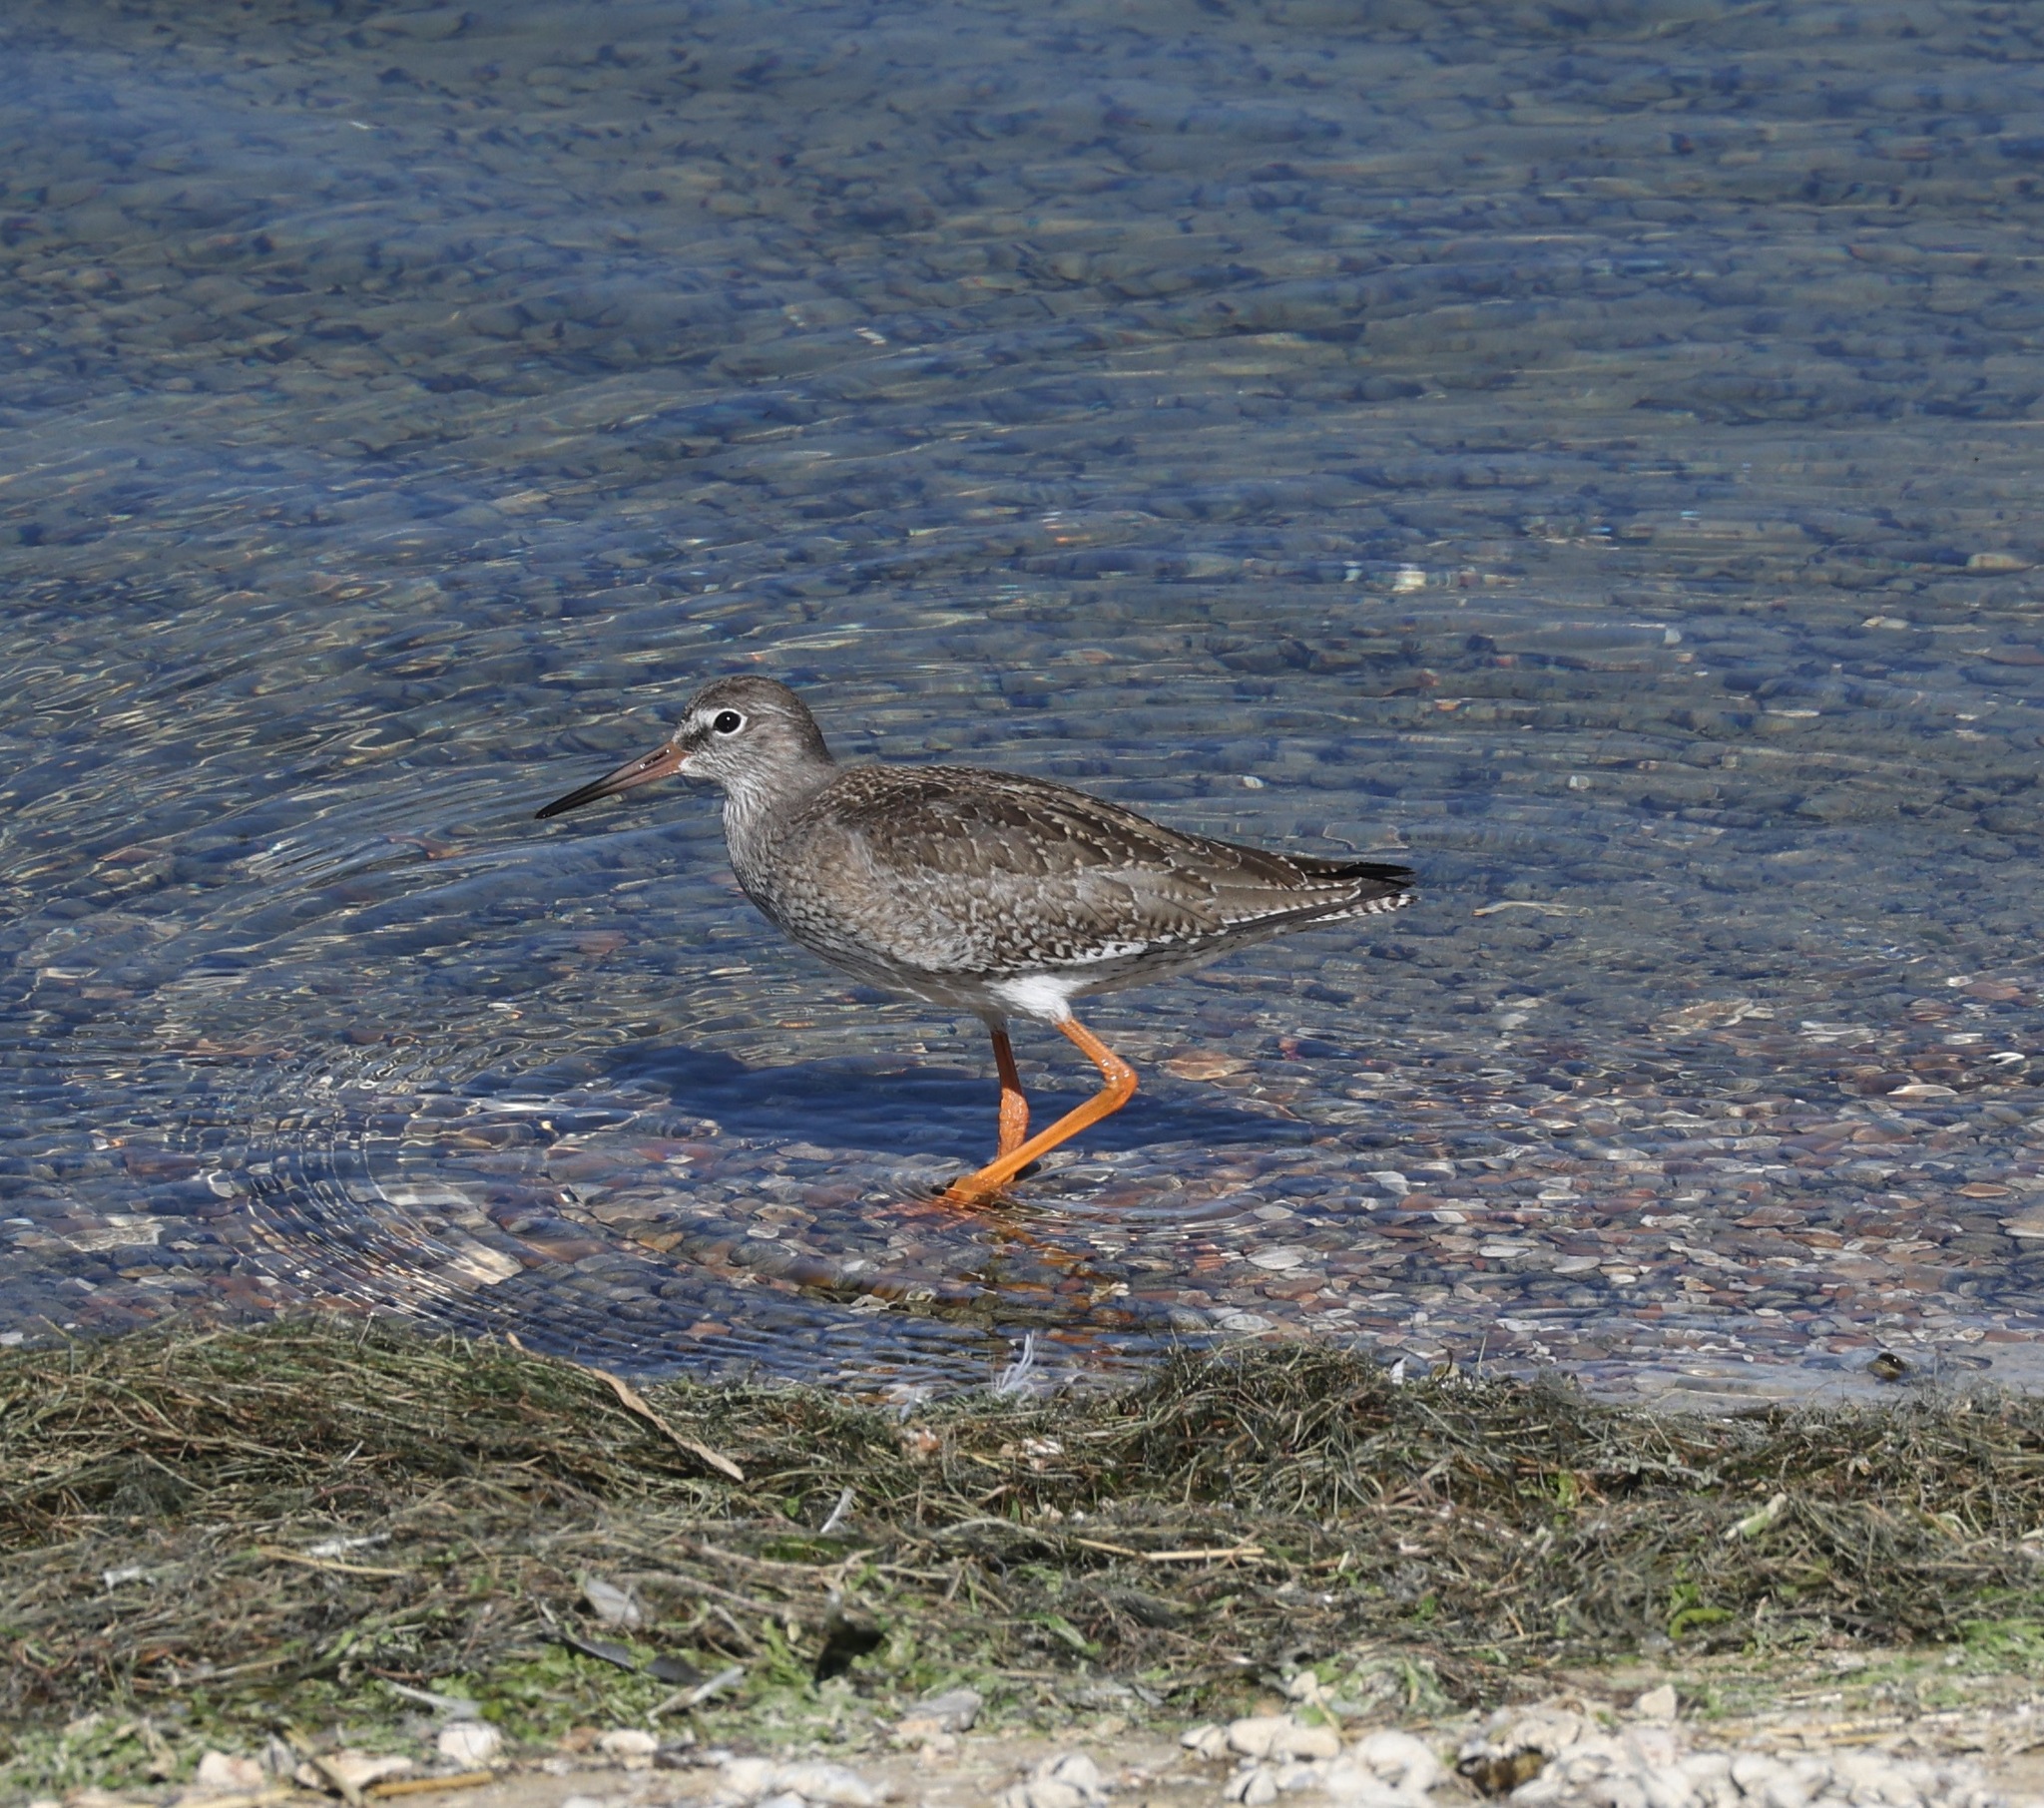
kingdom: Animalia
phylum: Chordata
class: Aves
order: Charadriiformes
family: Scolopacidae
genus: Tringa
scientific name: Tringa totanus
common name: Common redshank
